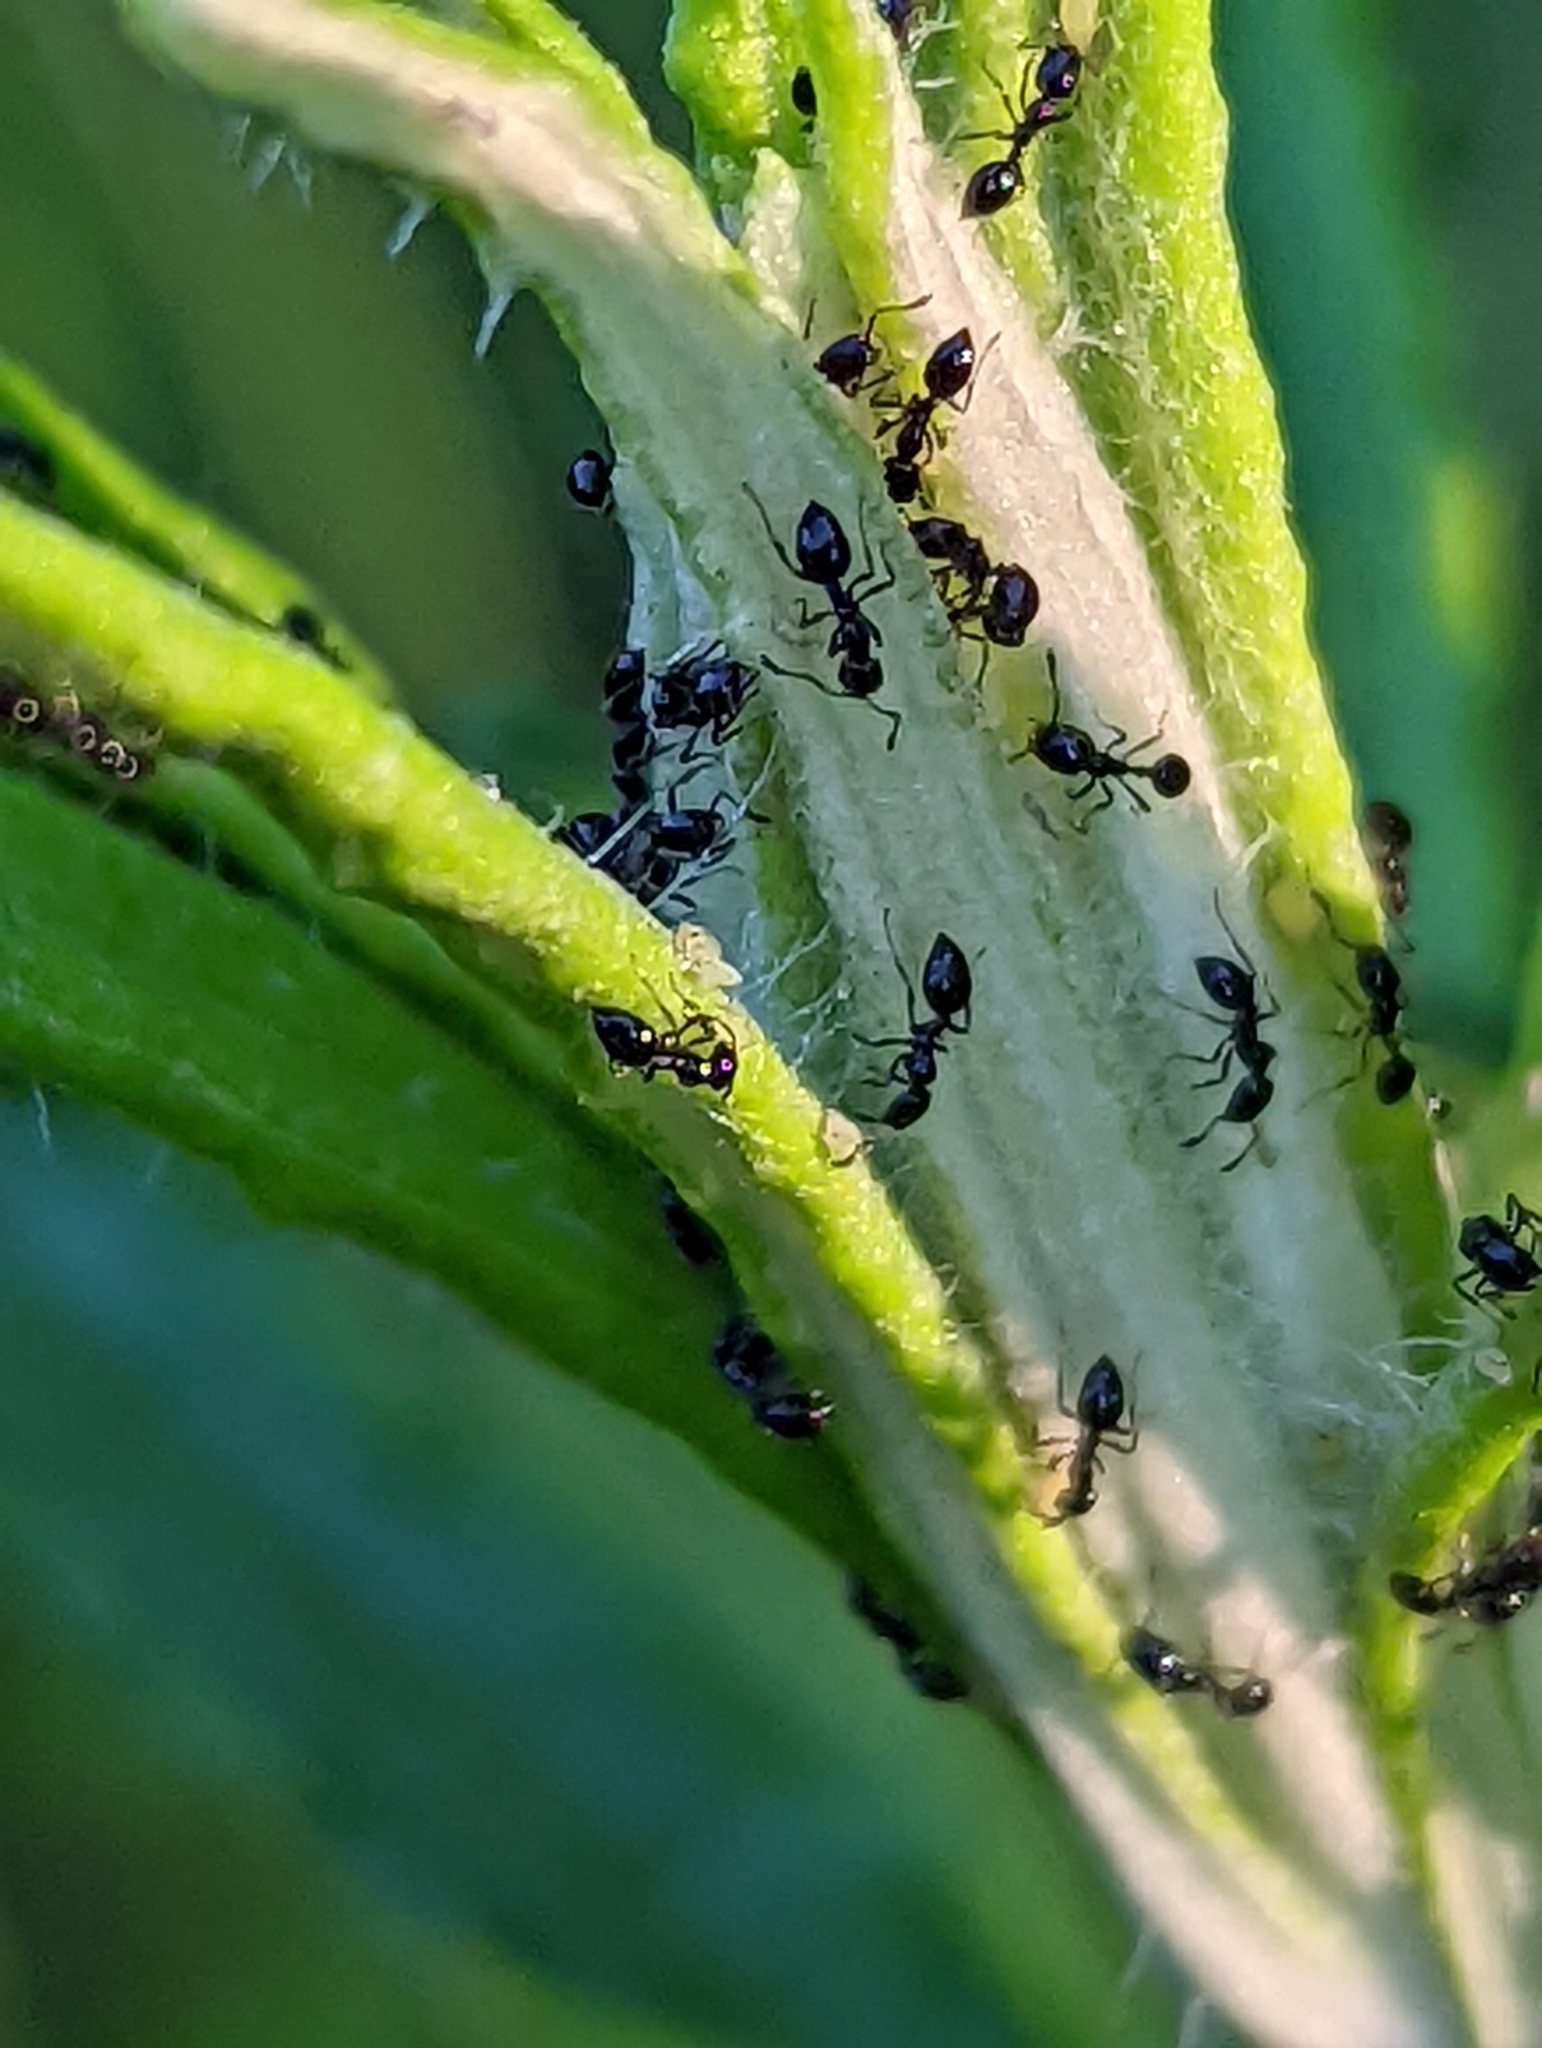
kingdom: Animalia
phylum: Arthropoda
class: Insecta
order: Hymenoptera
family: Formicidae
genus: Monomorium
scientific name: Monomorium minimum
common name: Little black ant
